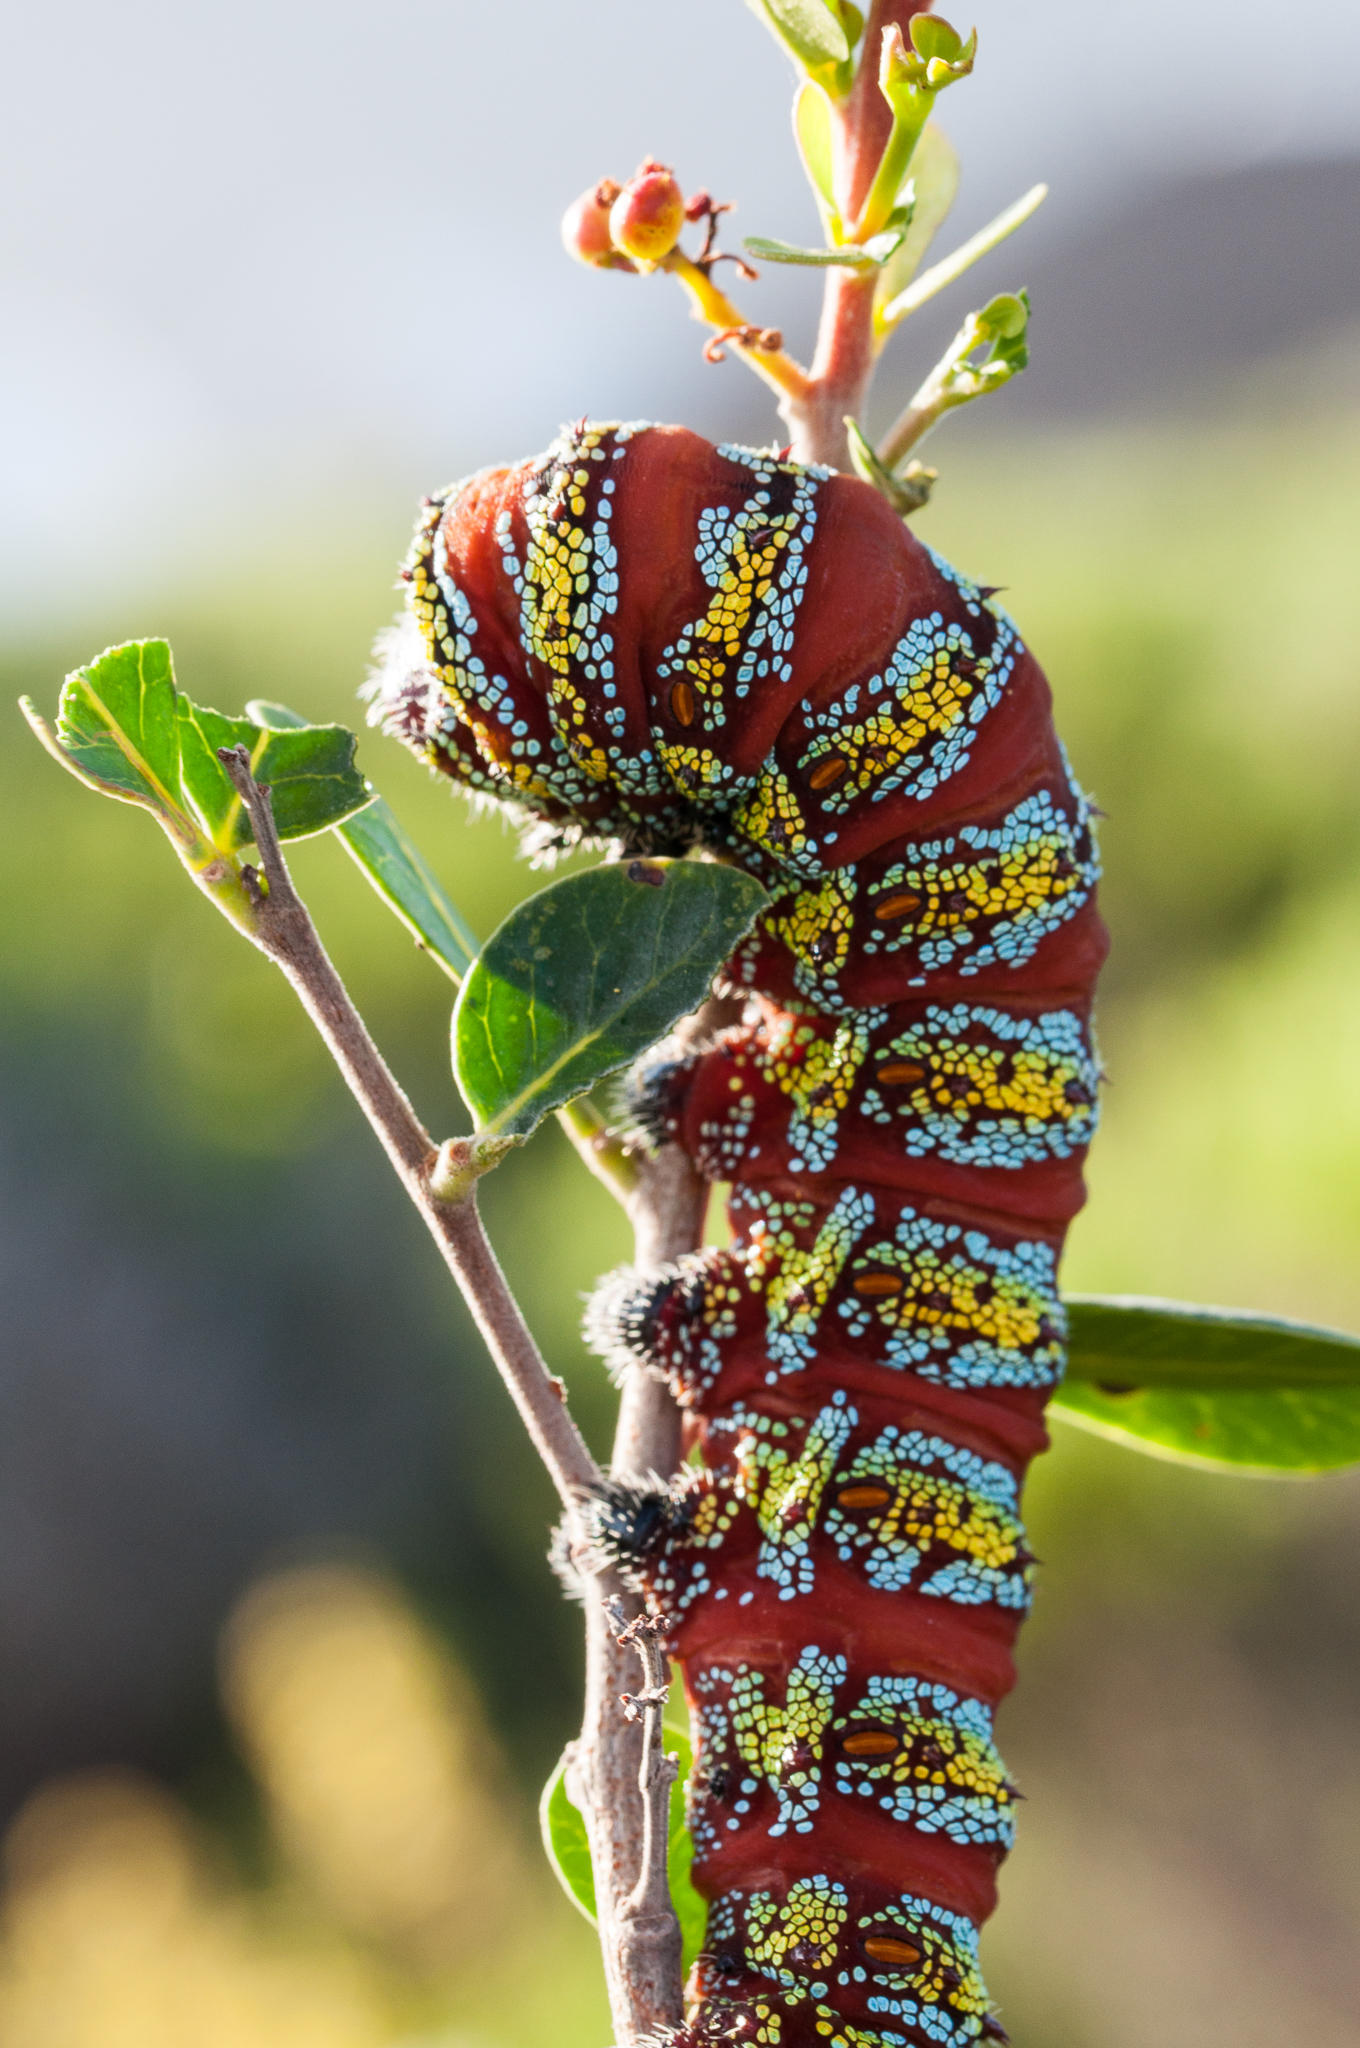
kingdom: Animalia
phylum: Arthropoda
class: Insecta
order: Lepidoptera
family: Saturniidae
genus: Nudaurelia
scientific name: Nudaurelia cytherea
